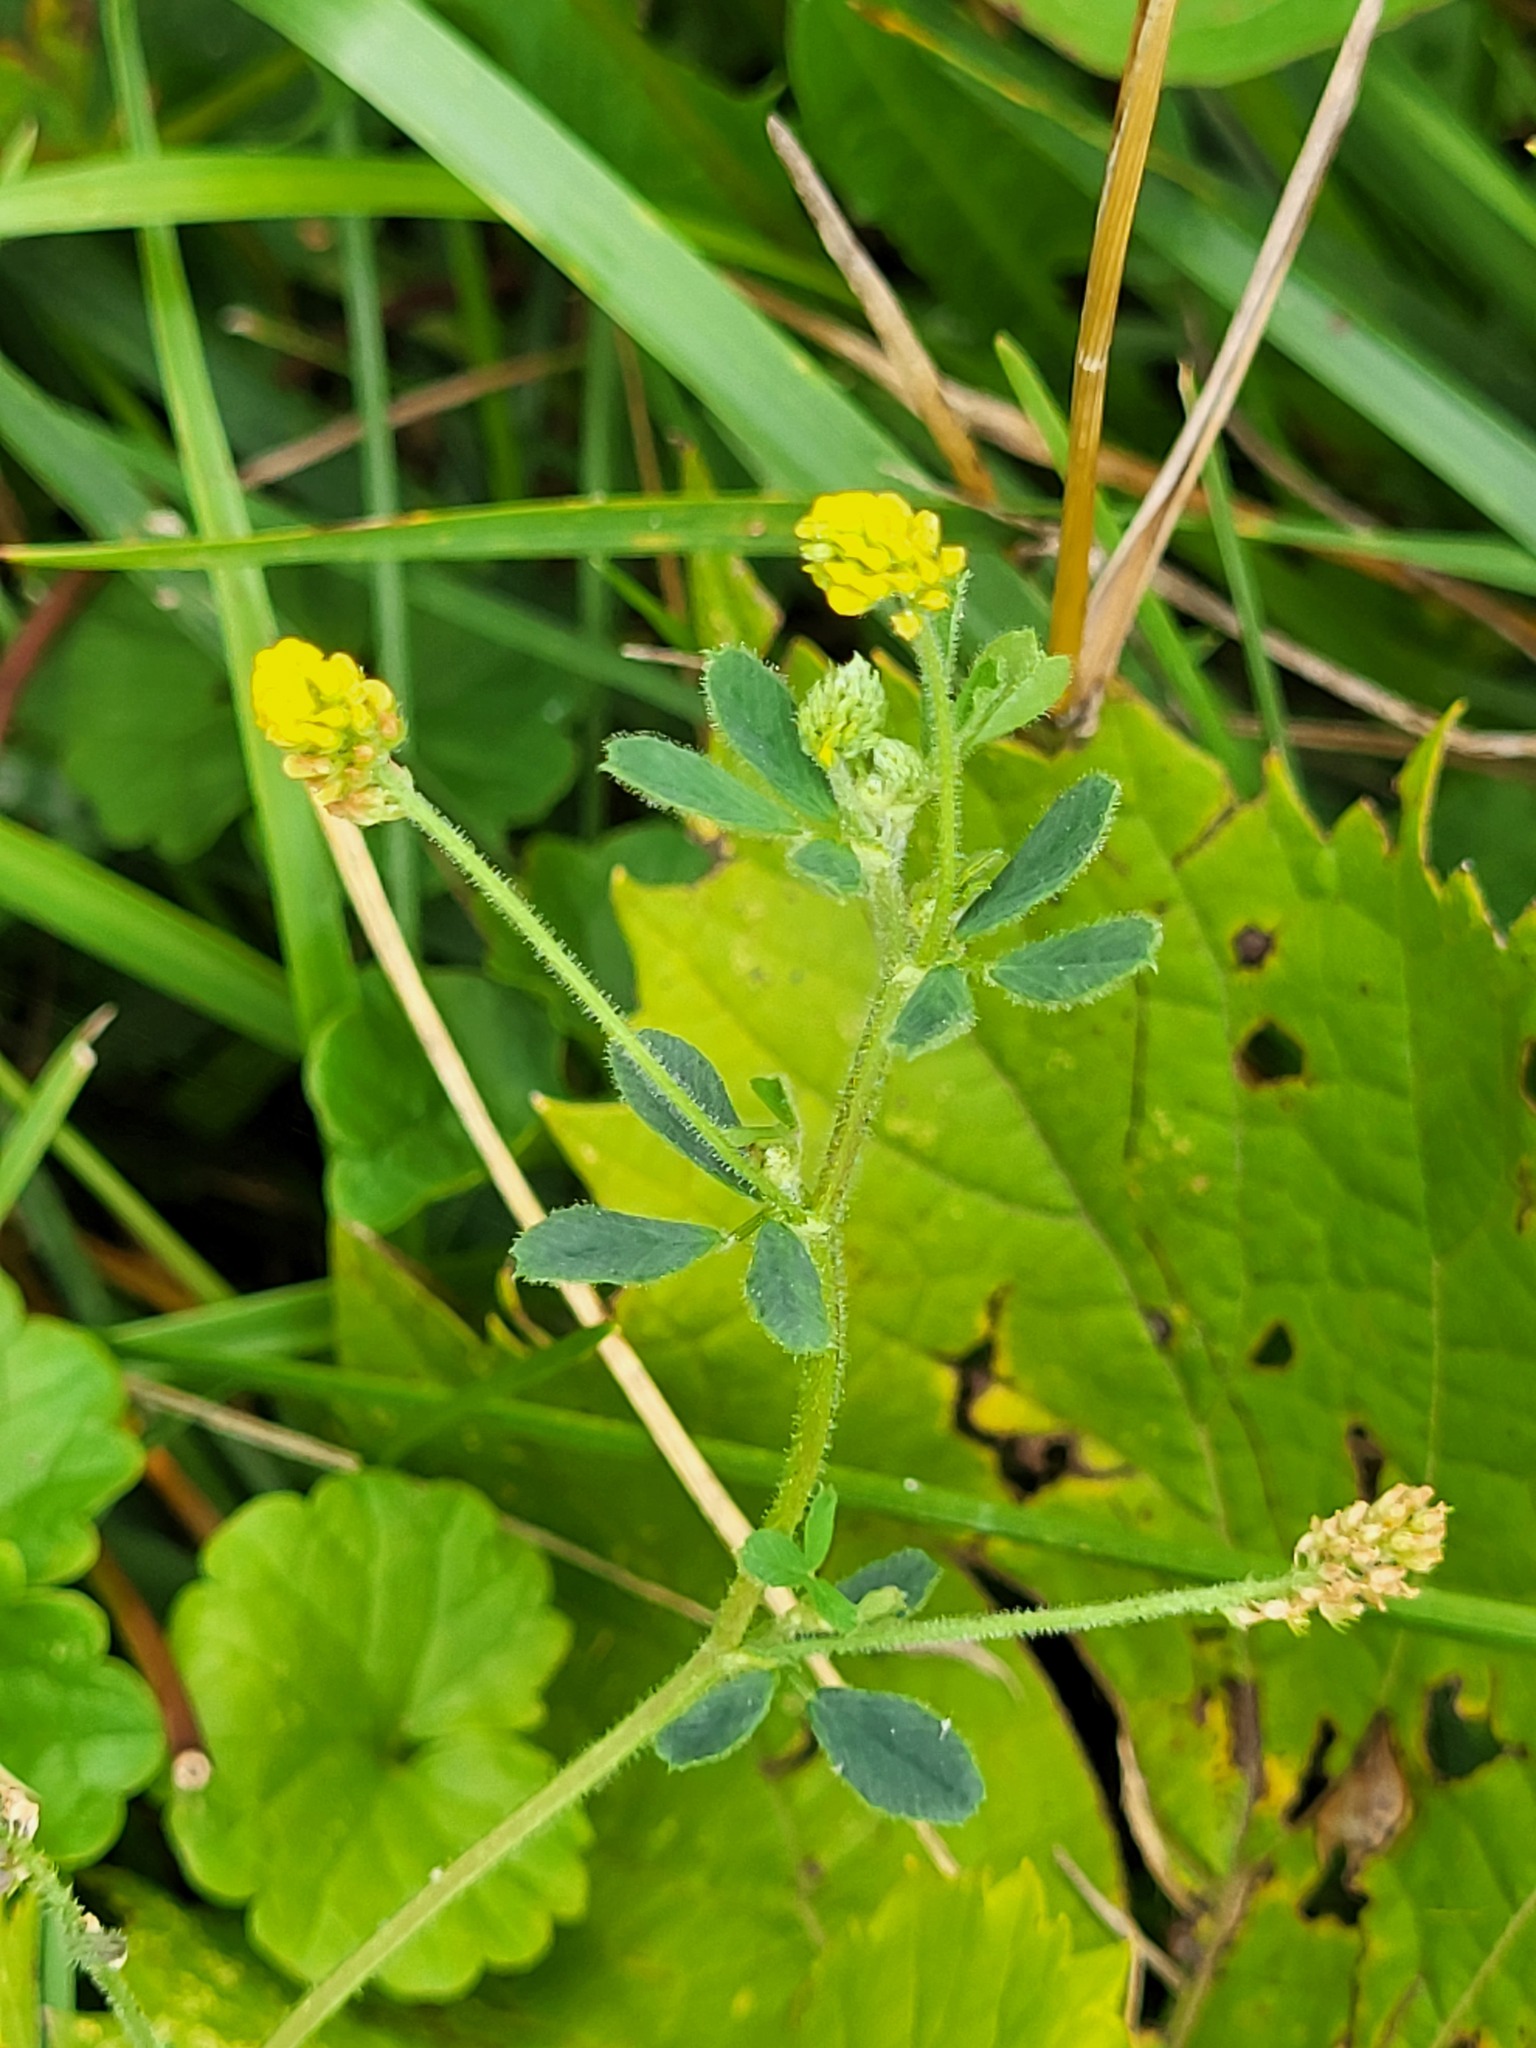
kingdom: Plantae
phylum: Tracheophyta
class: Magnoliopsida
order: Fabales
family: Fabaceae
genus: Medicago
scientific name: Medicago lupulina
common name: Black medick
